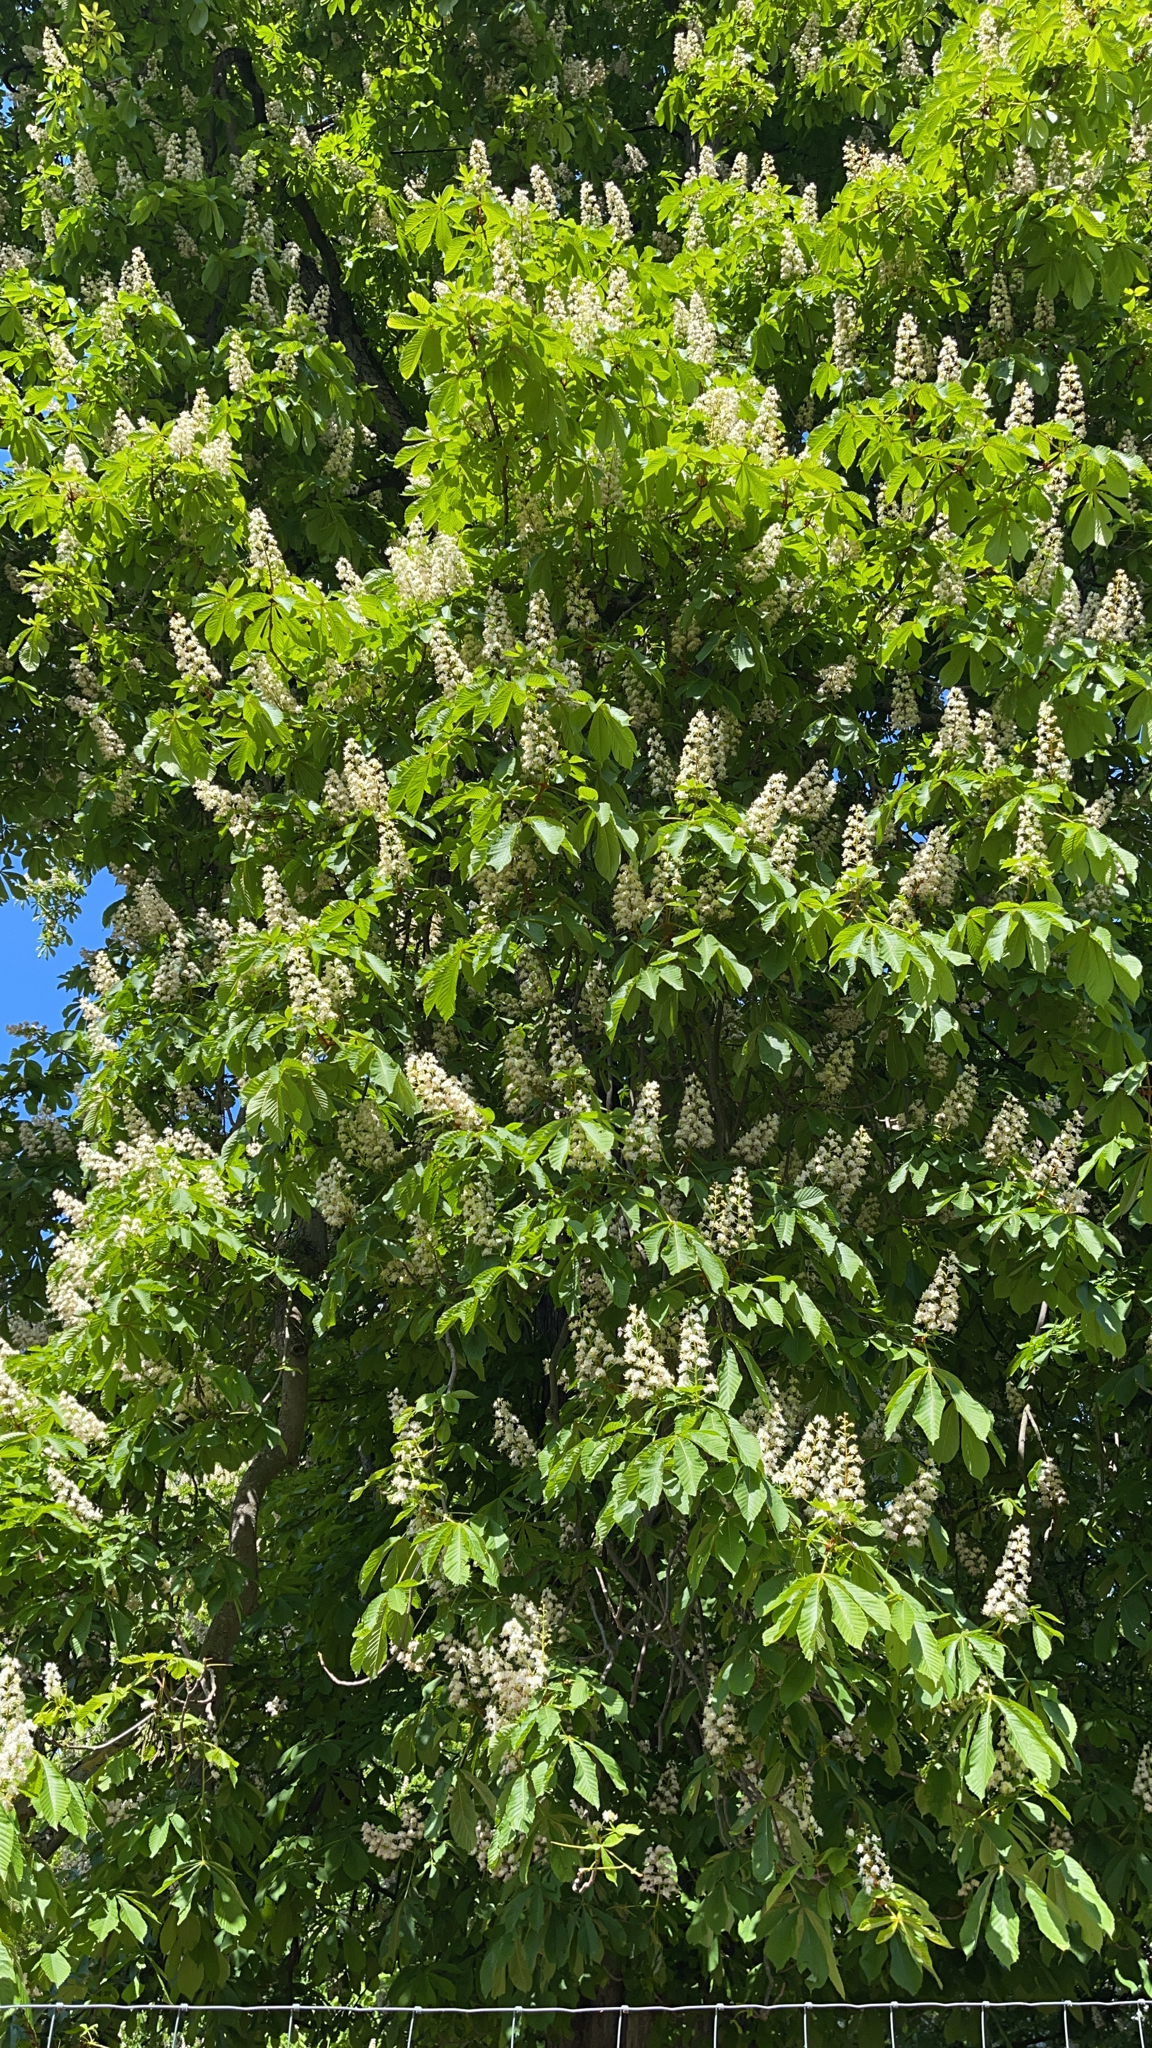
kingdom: Plantae
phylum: Tracheophyta
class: Magnoliopsida
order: Sapindales
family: Sapindaceae
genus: Aesculus
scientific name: Aesculus hippocastanum
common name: Horse-chestnut
